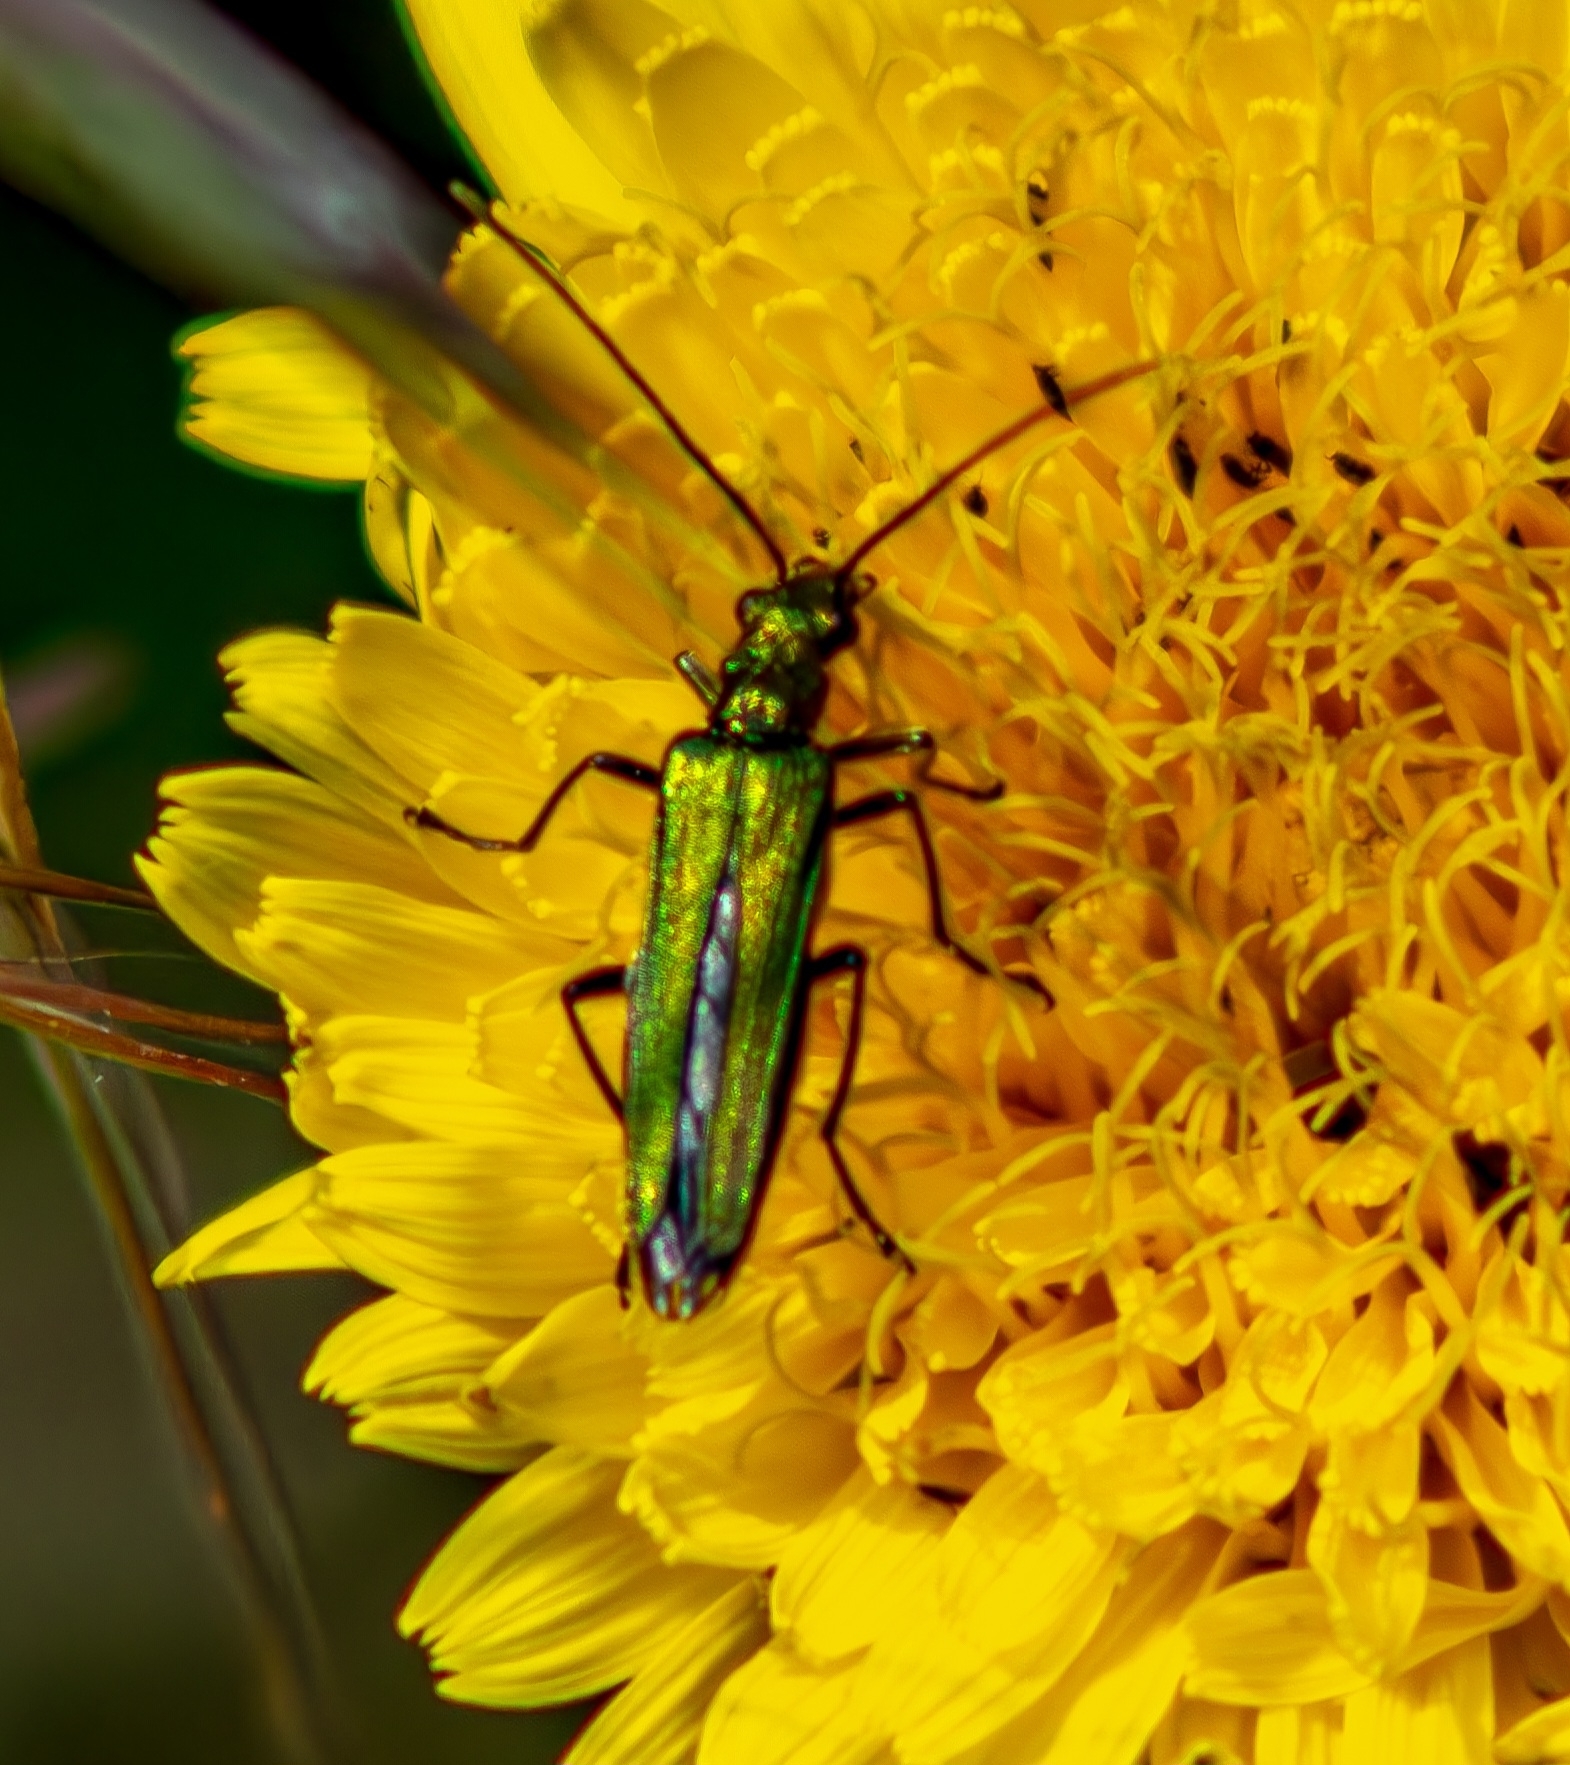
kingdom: Animalia
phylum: Arthropoda
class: Insecta
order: Coleoptera
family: Oedemeridae
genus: Oedemera
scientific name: Oedemera nobilis
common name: Swollen-thighed beetle
